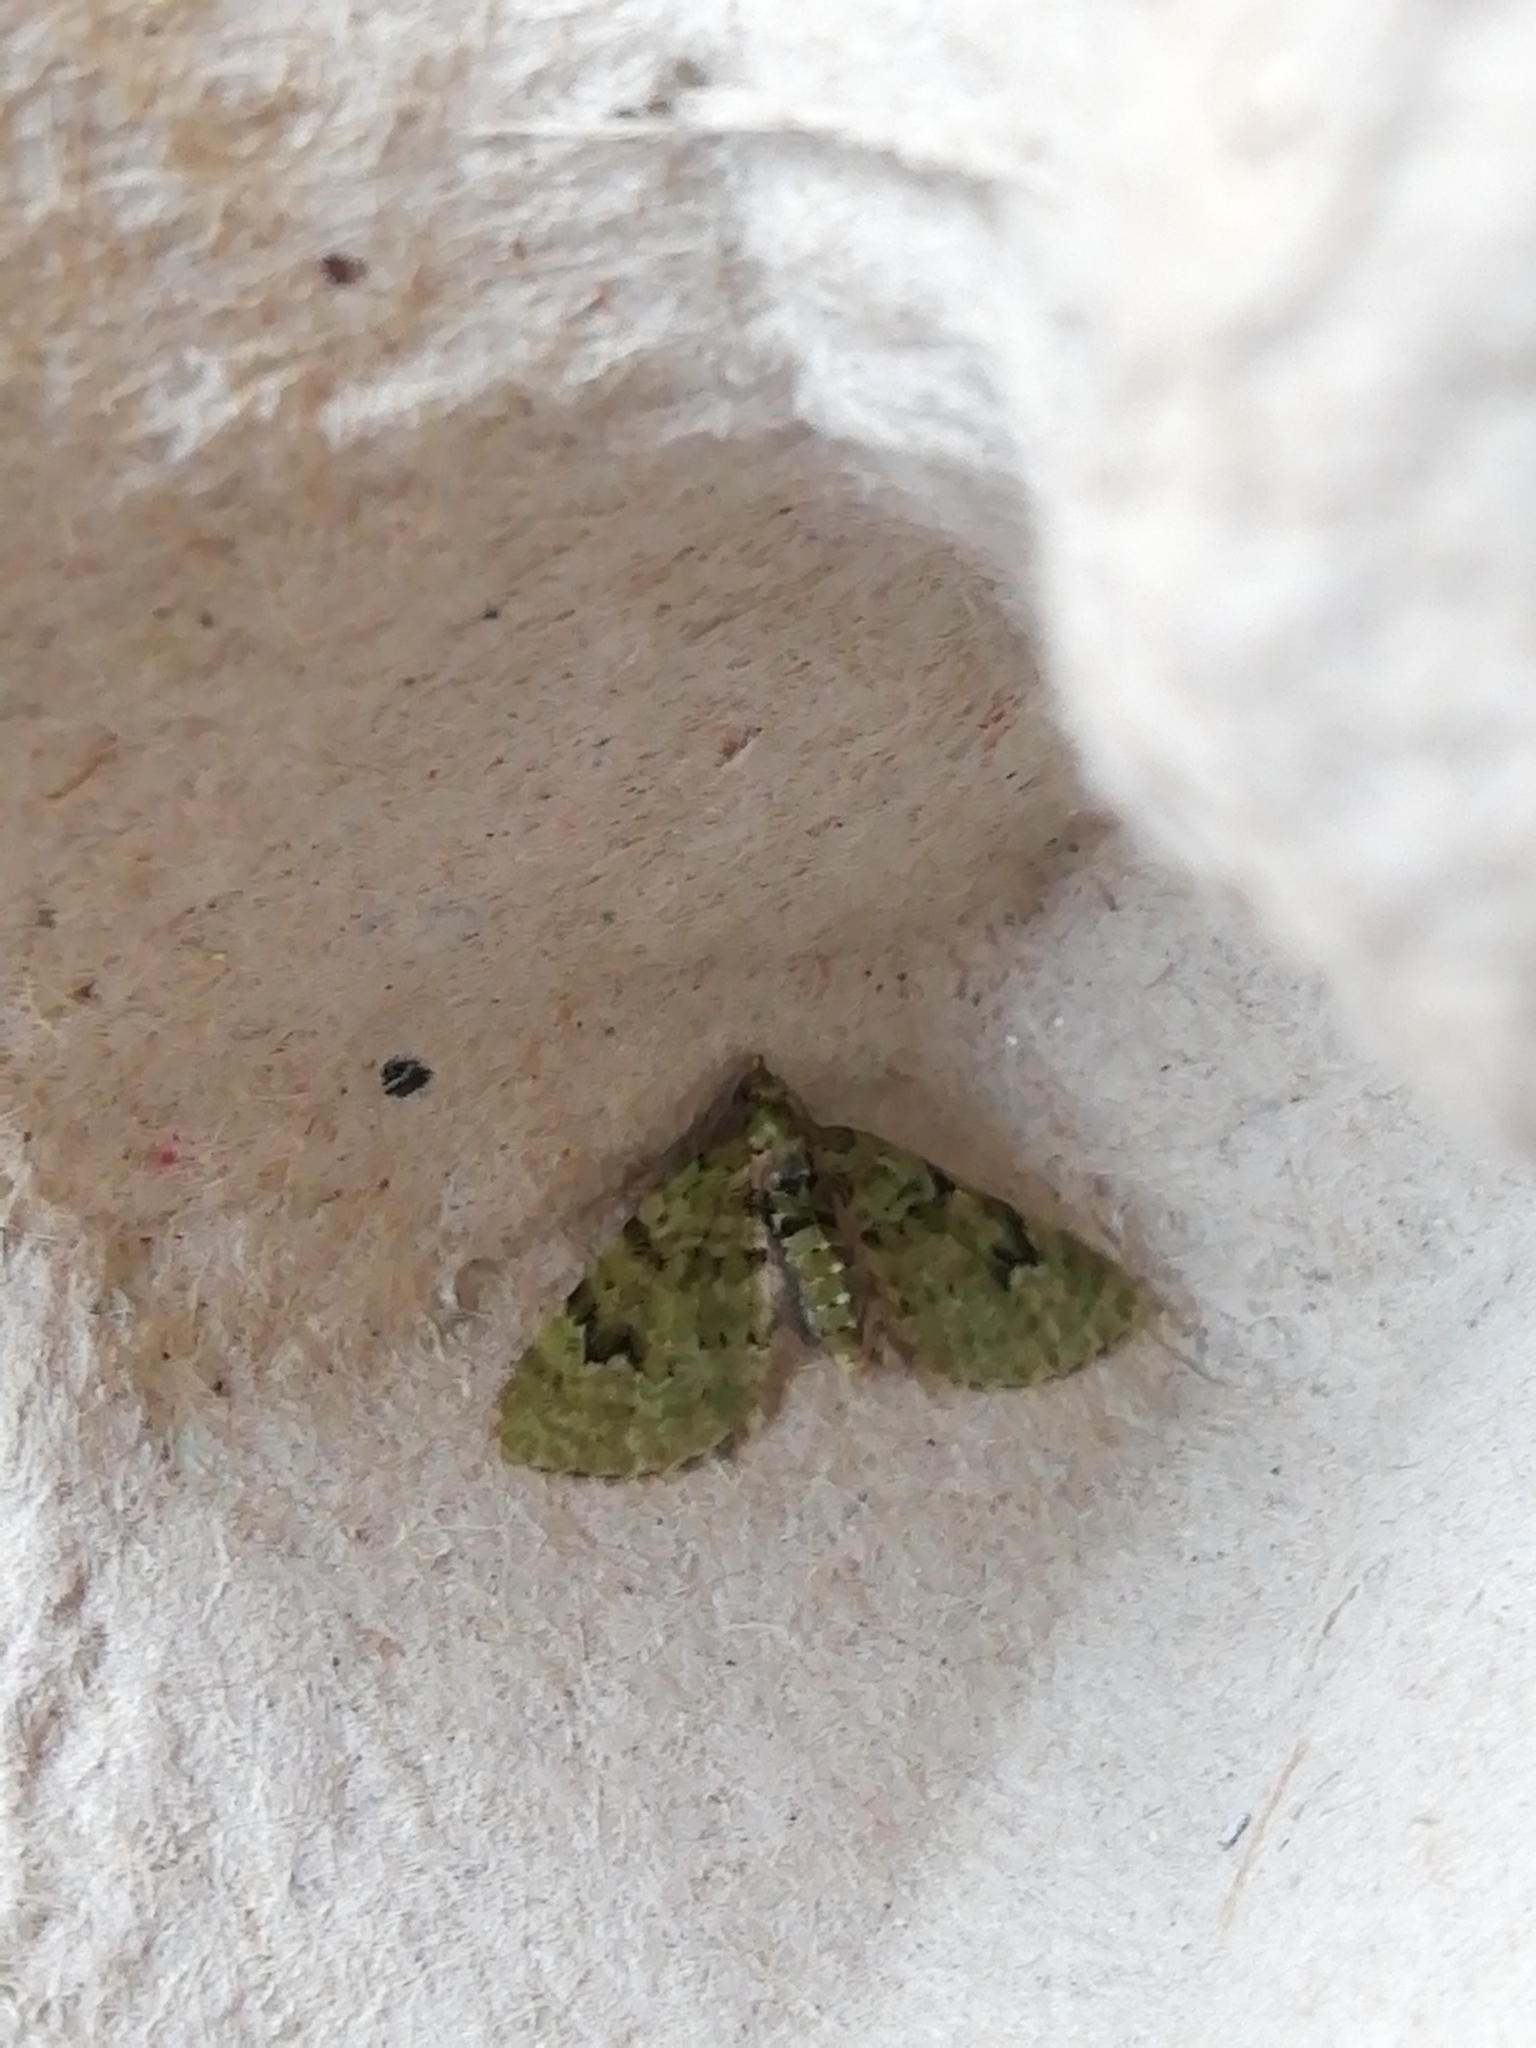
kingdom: Animalia
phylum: Arthropoda
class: Insecta
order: Lepidoptera
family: Geometridae
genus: Chloroclystis
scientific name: Chloroclystis v-ata
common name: V-pug
